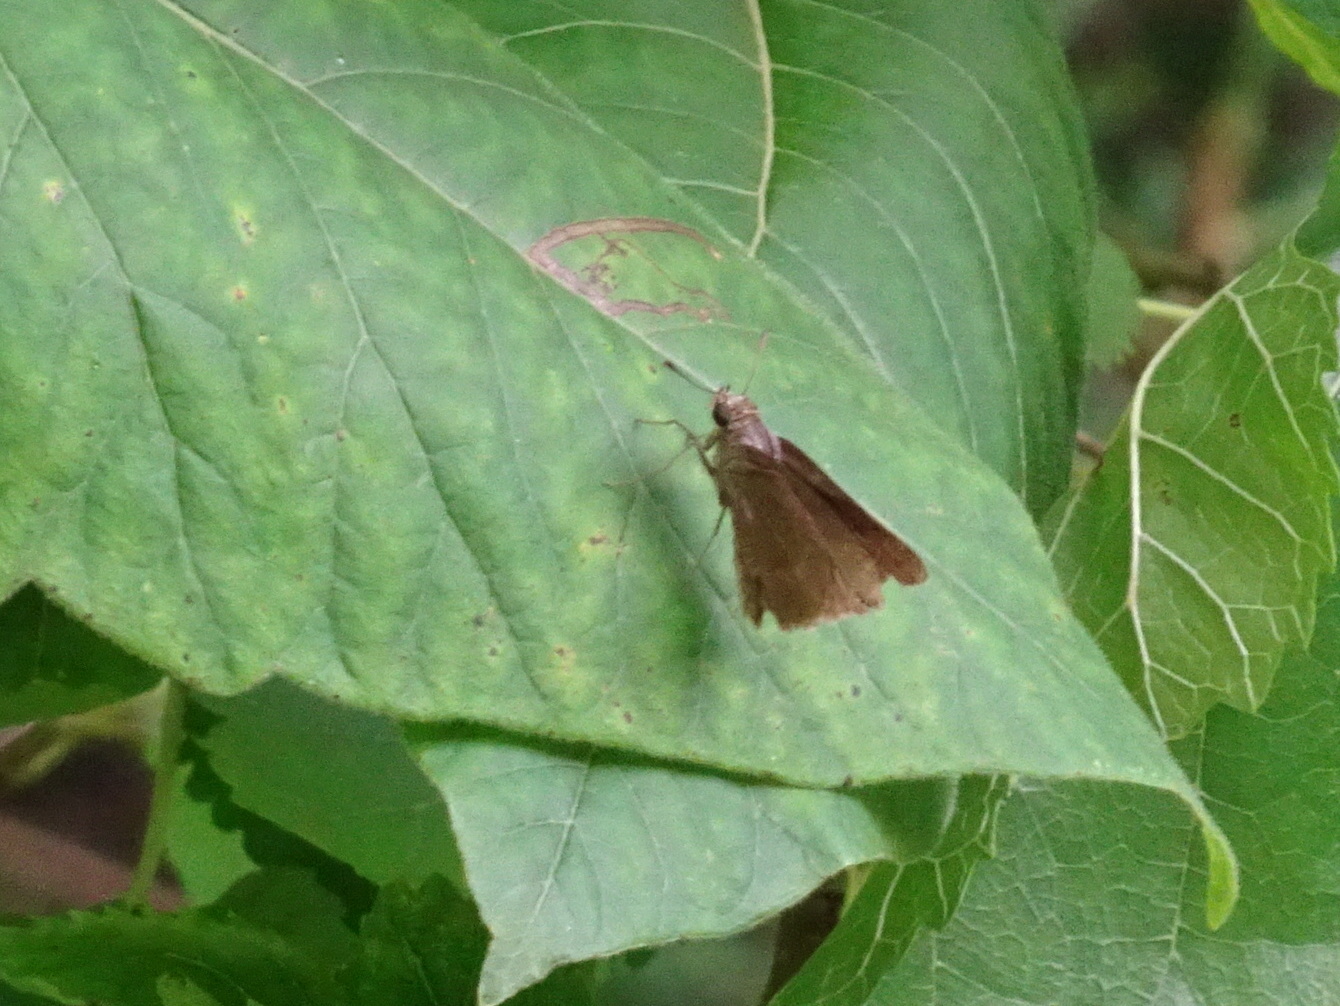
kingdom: Animalia
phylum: Arthropoda
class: Insecta
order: Lepidoptera
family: Hesperiidae
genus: Euphyes
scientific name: Euphyes vestris
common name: Dun skipper
